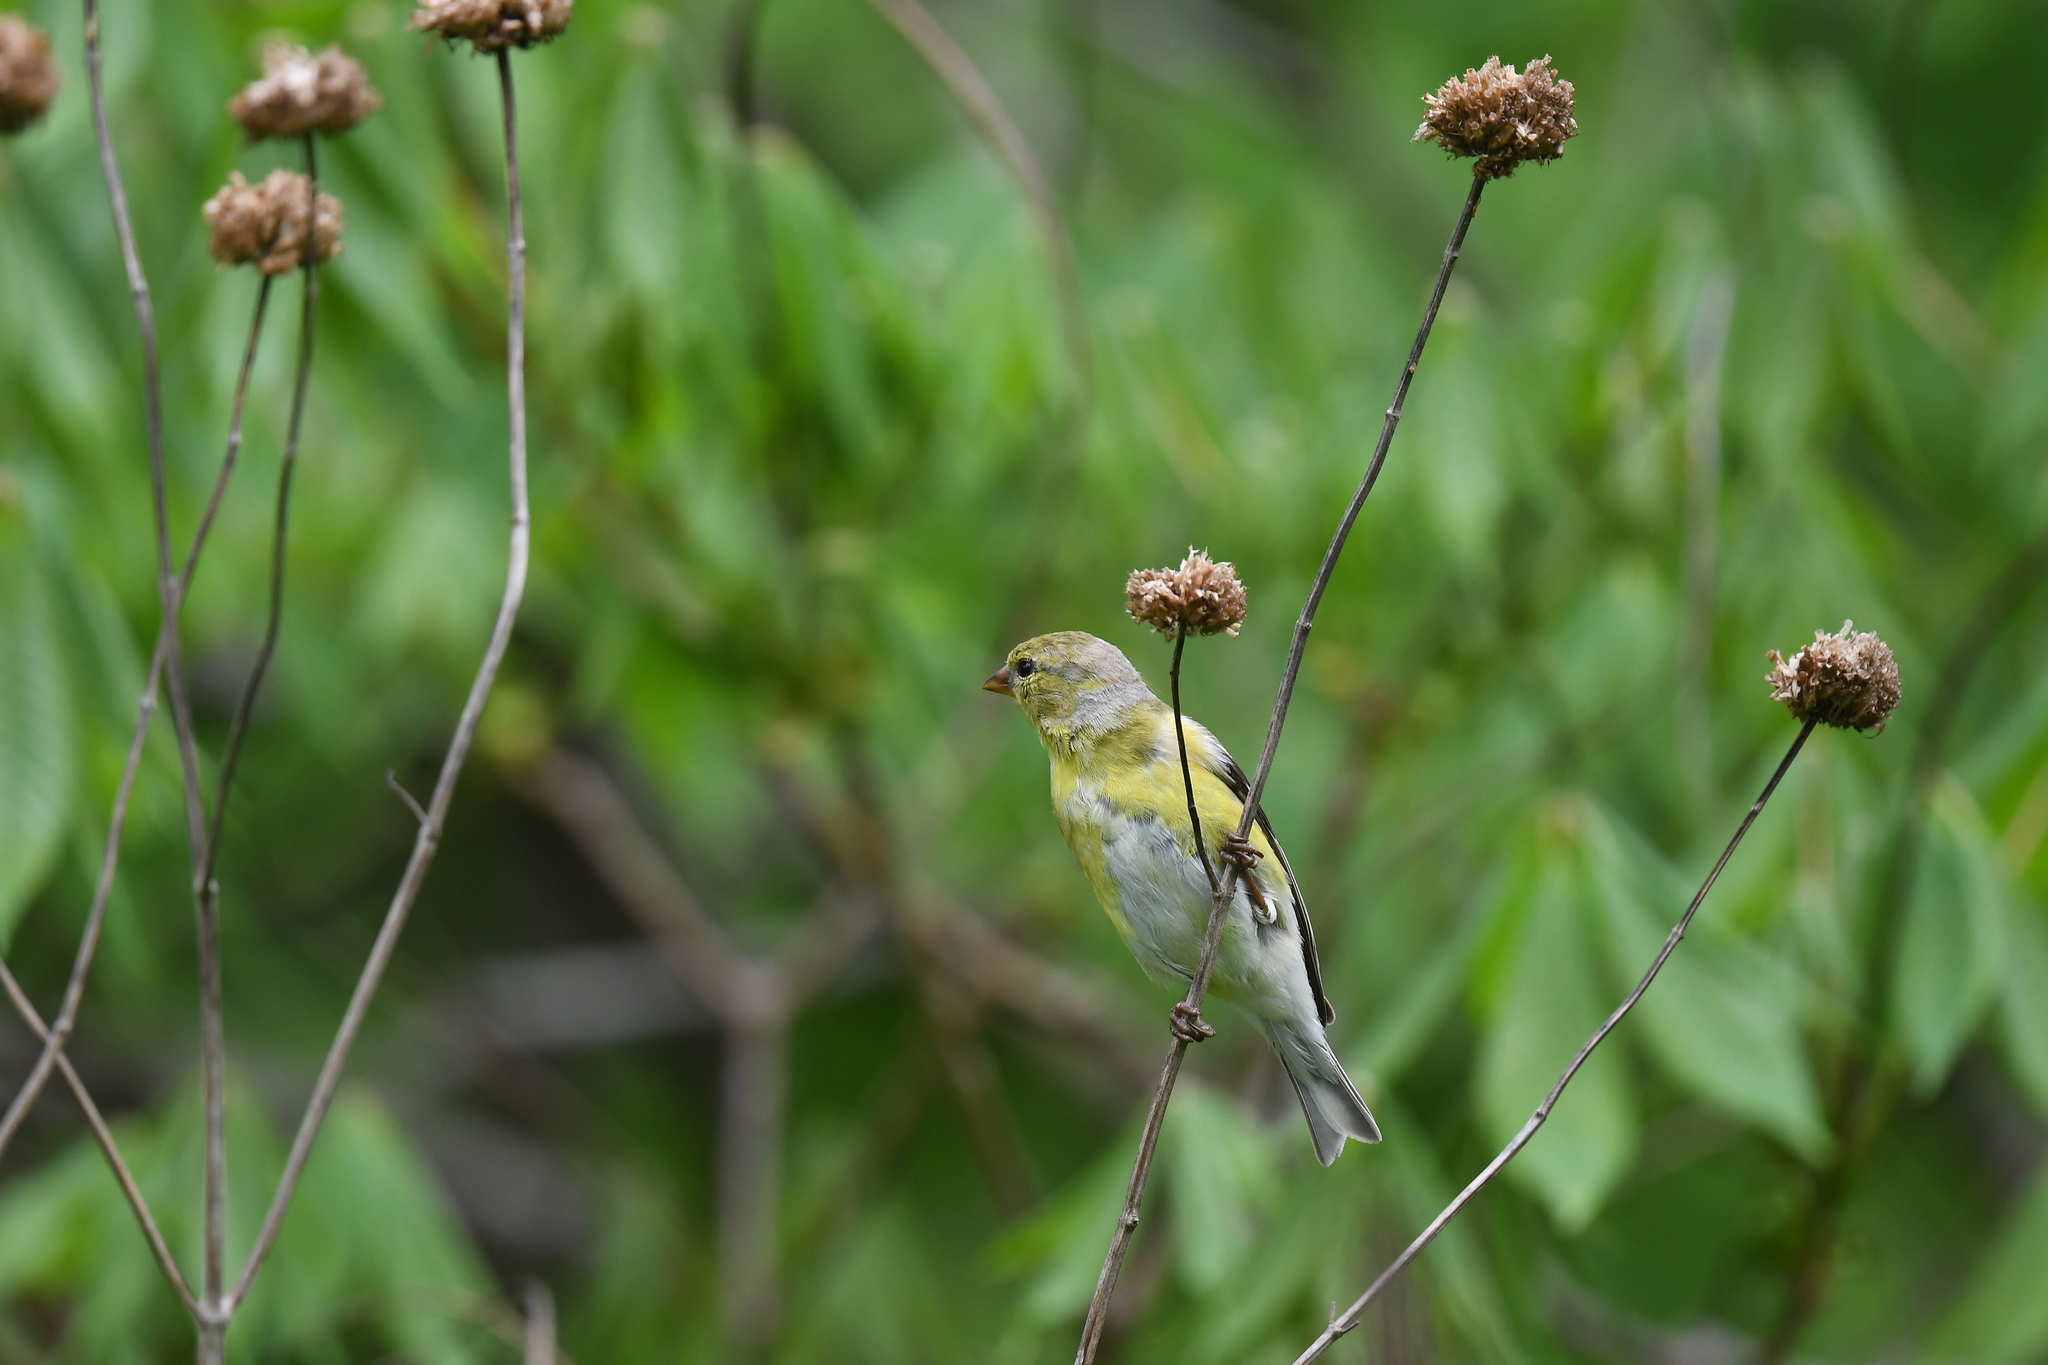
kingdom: Animalia
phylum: Chordata
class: Aves
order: Passeriformes
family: Fringillidae
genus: Spinus
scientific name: Spinus tristis
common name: American goldfinch
